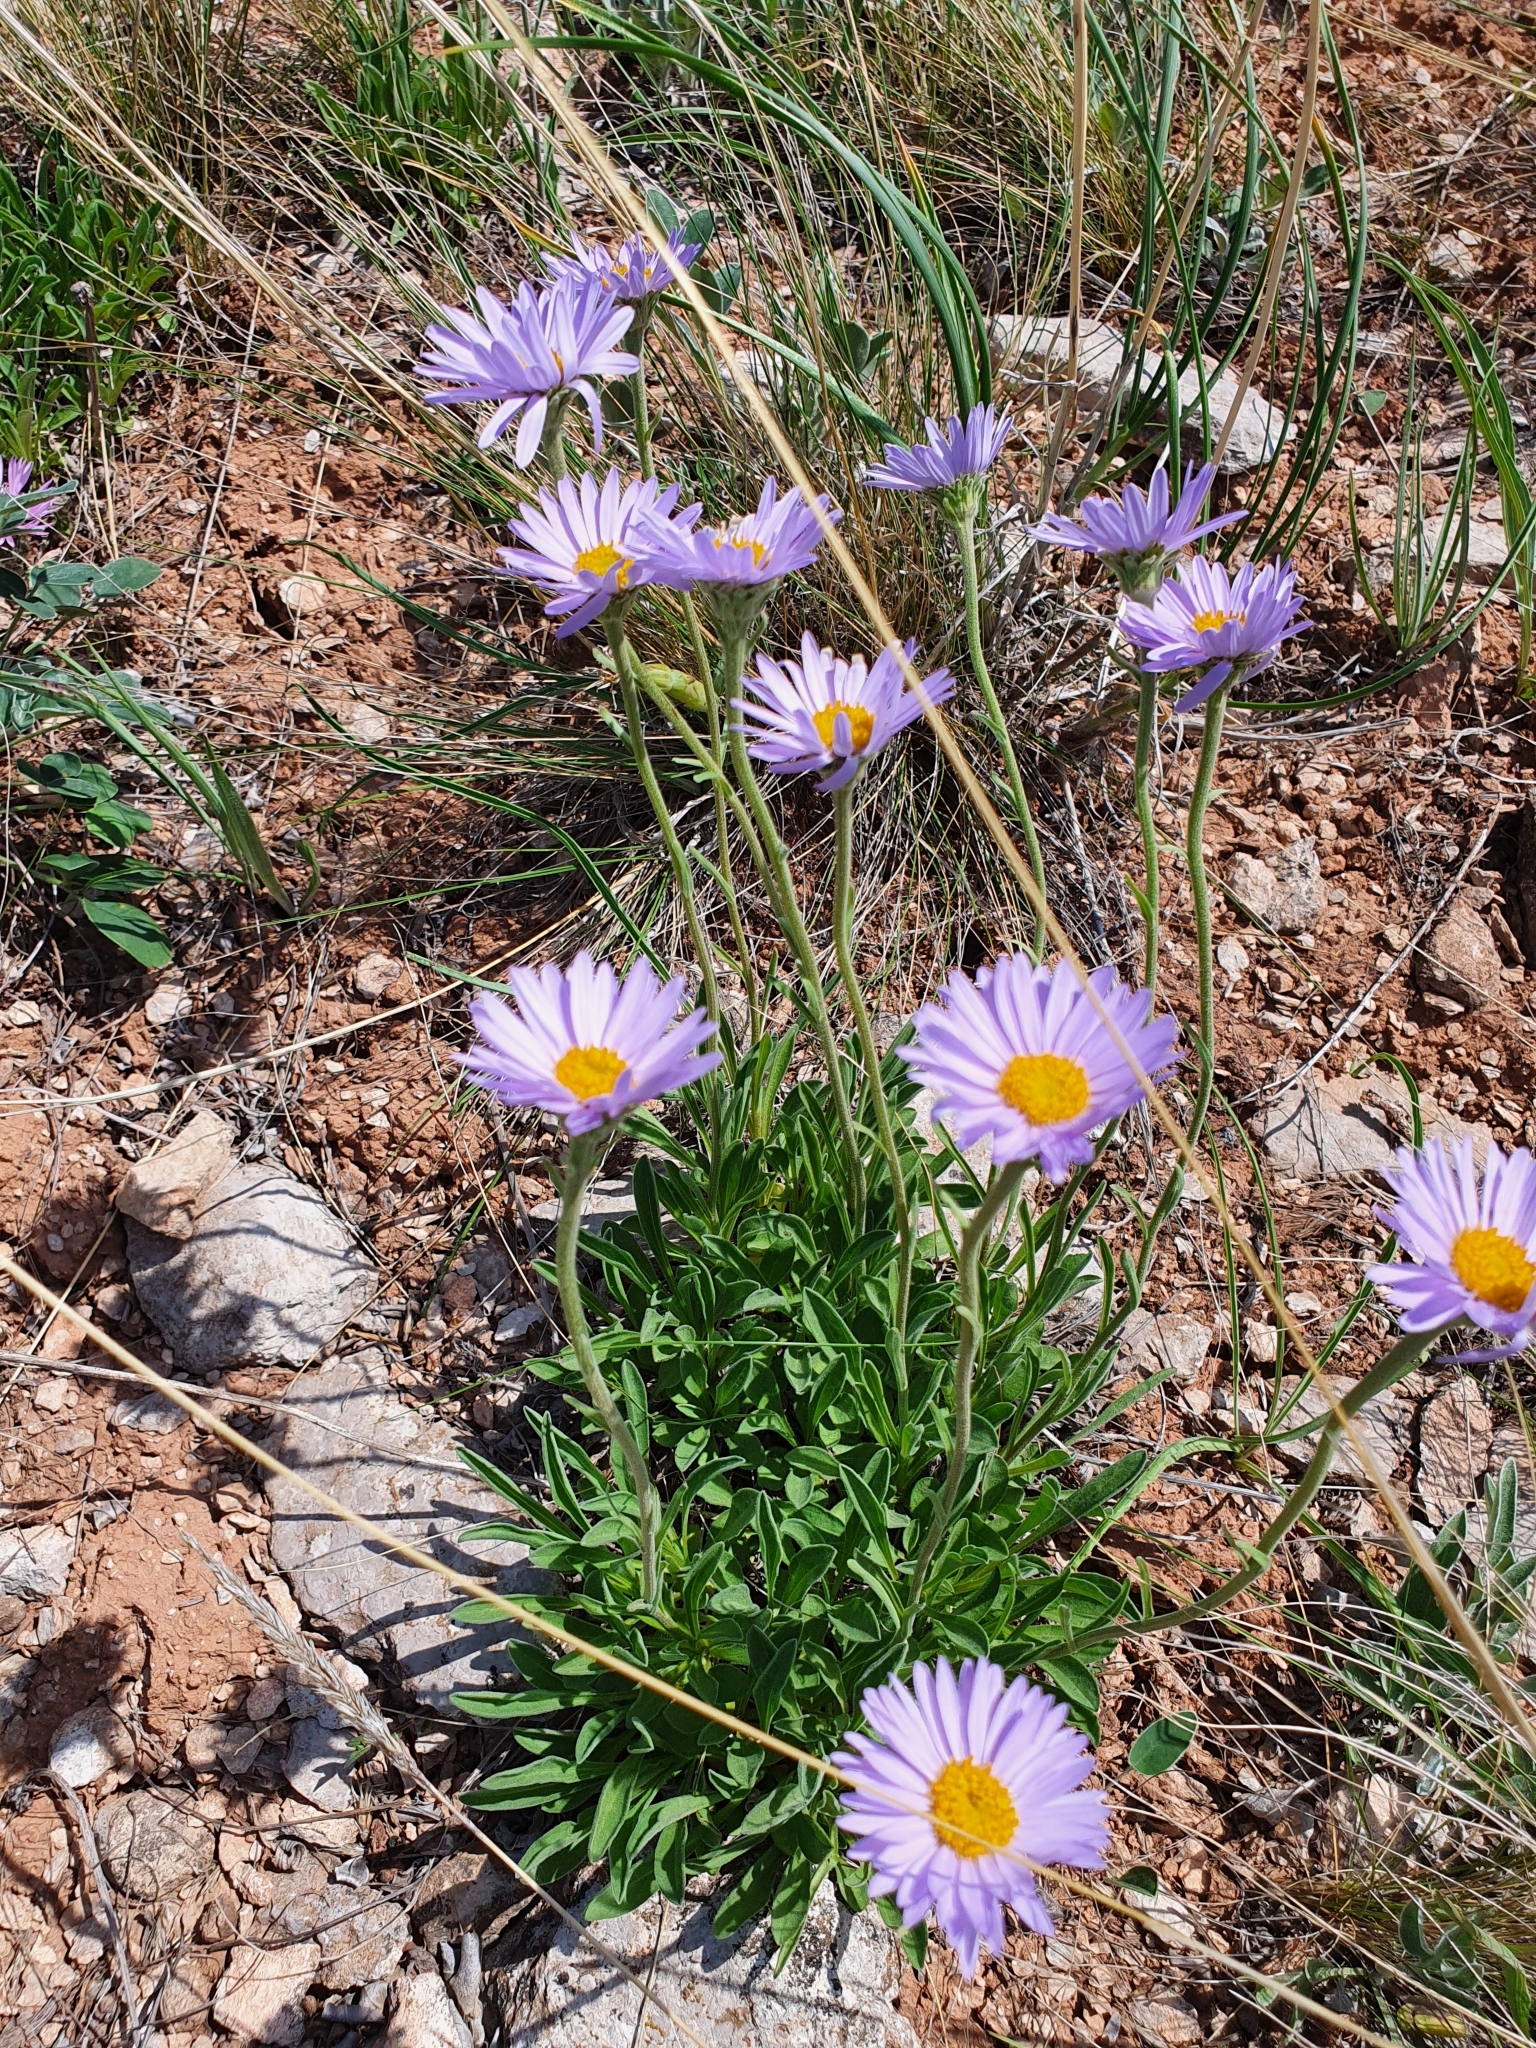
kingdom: Plantae
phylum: Tracheophyta
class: Magnoliopsida
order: Asterales
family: Asteraceae
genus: Aster
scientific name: Aster alpinus
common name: Alpine aster
